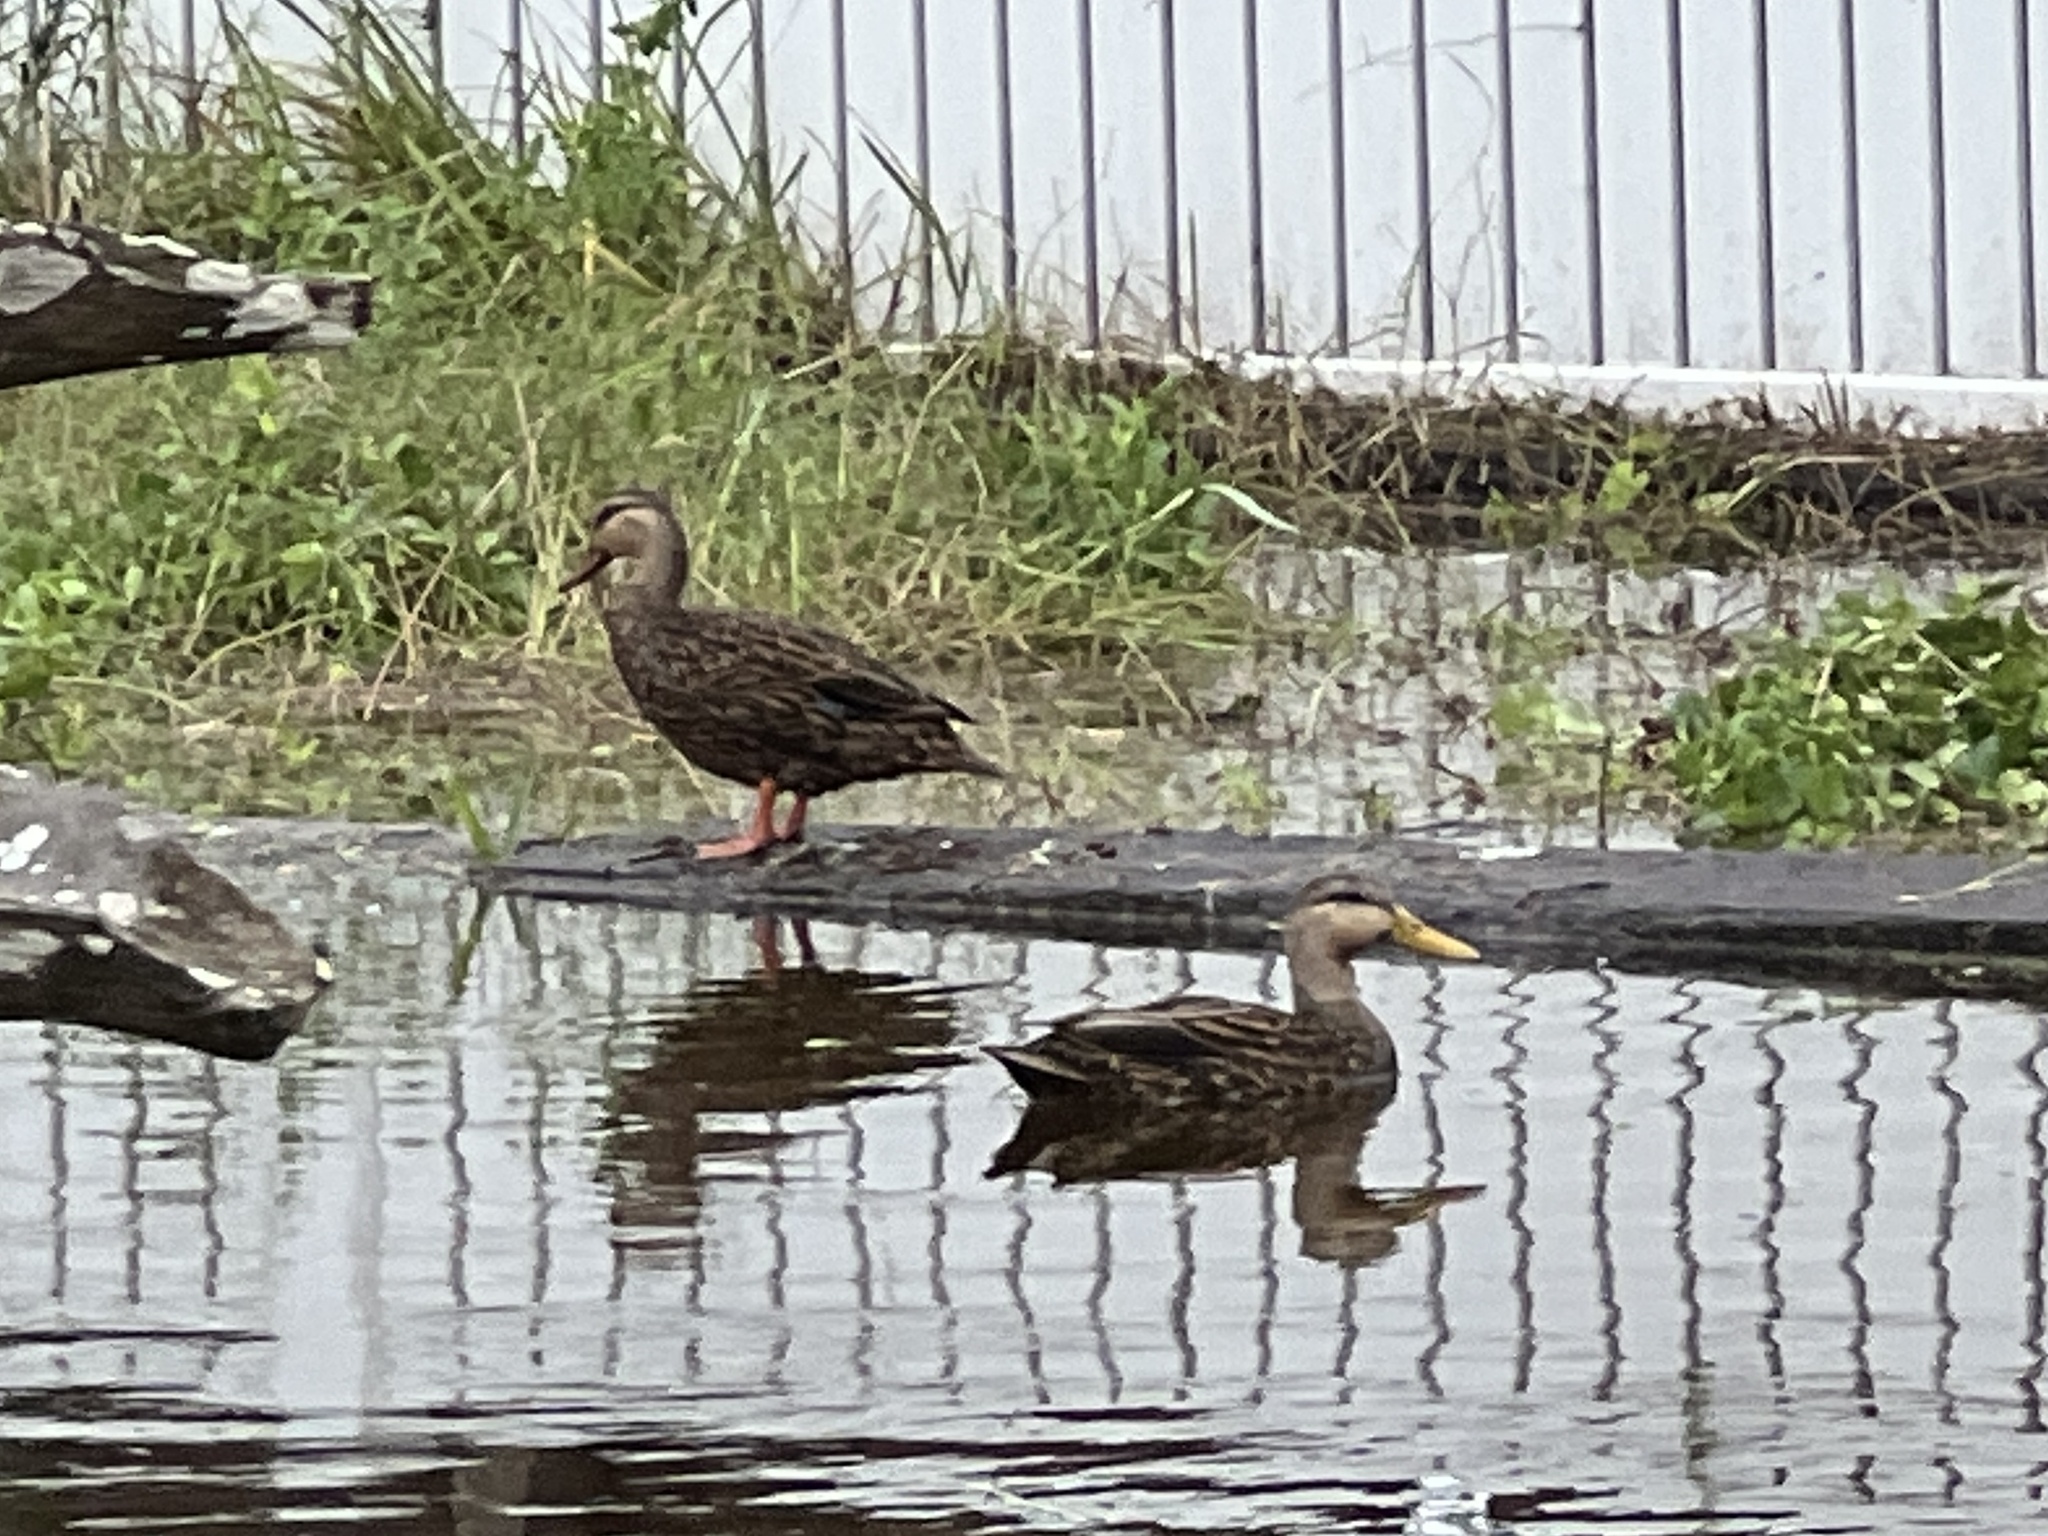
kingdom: Animalia
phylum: Chordata
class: Aves
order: Anseriformes
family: Anatidae
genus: Anas
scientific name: Anas fulvigula
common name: Mottled duck
